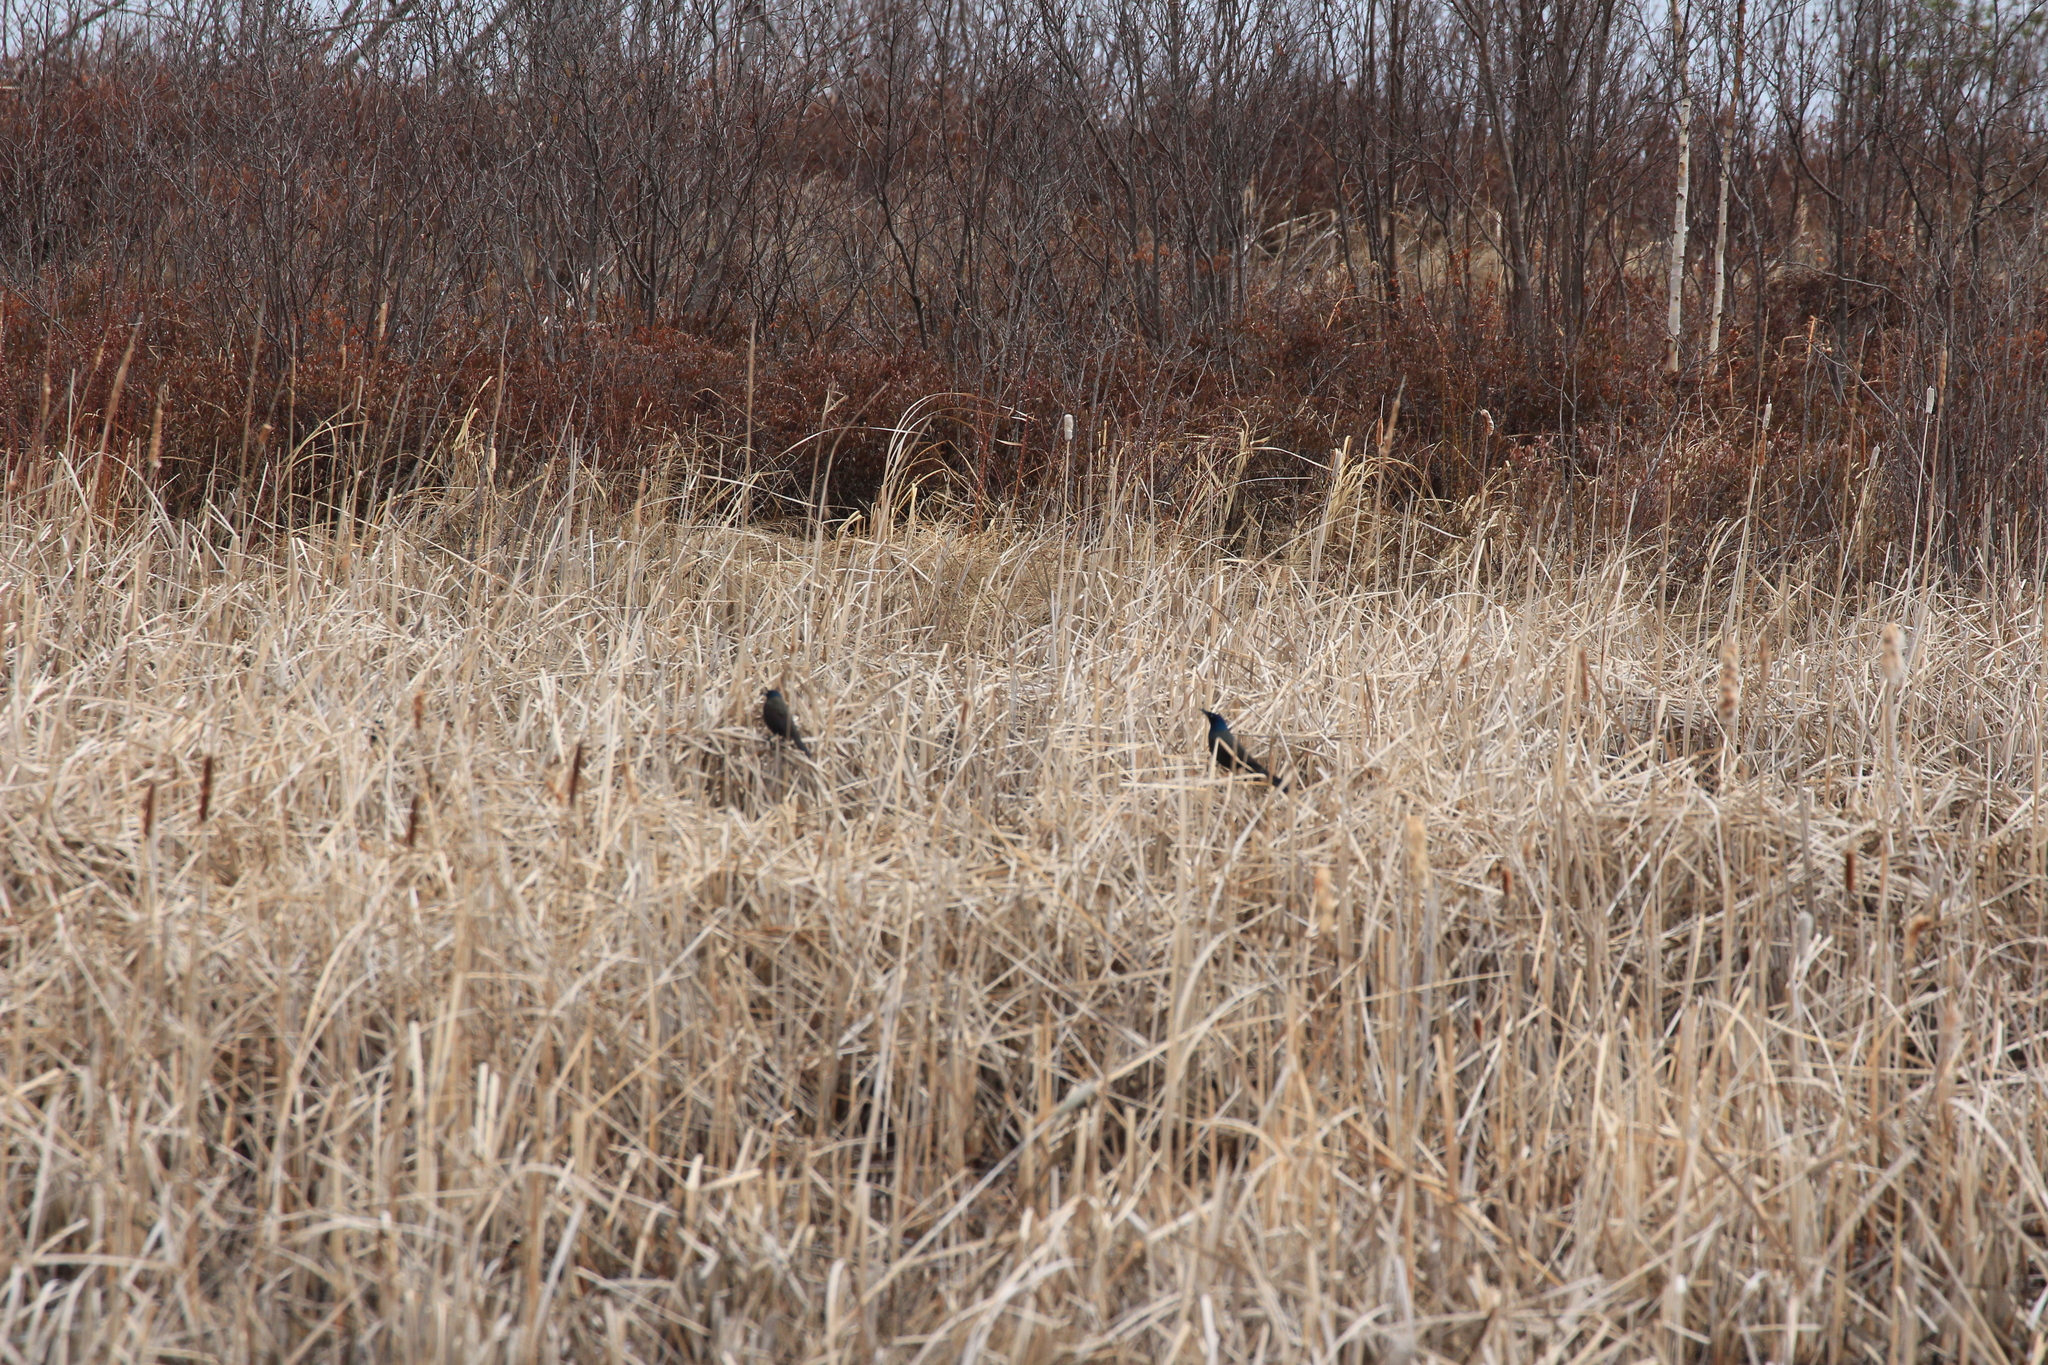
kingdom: Animalia
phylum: Chordata
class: Aves
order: Passeriformes
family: Icteridae
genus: Quiscalus
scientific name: Quiscalus quiscula
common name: Common grackle
